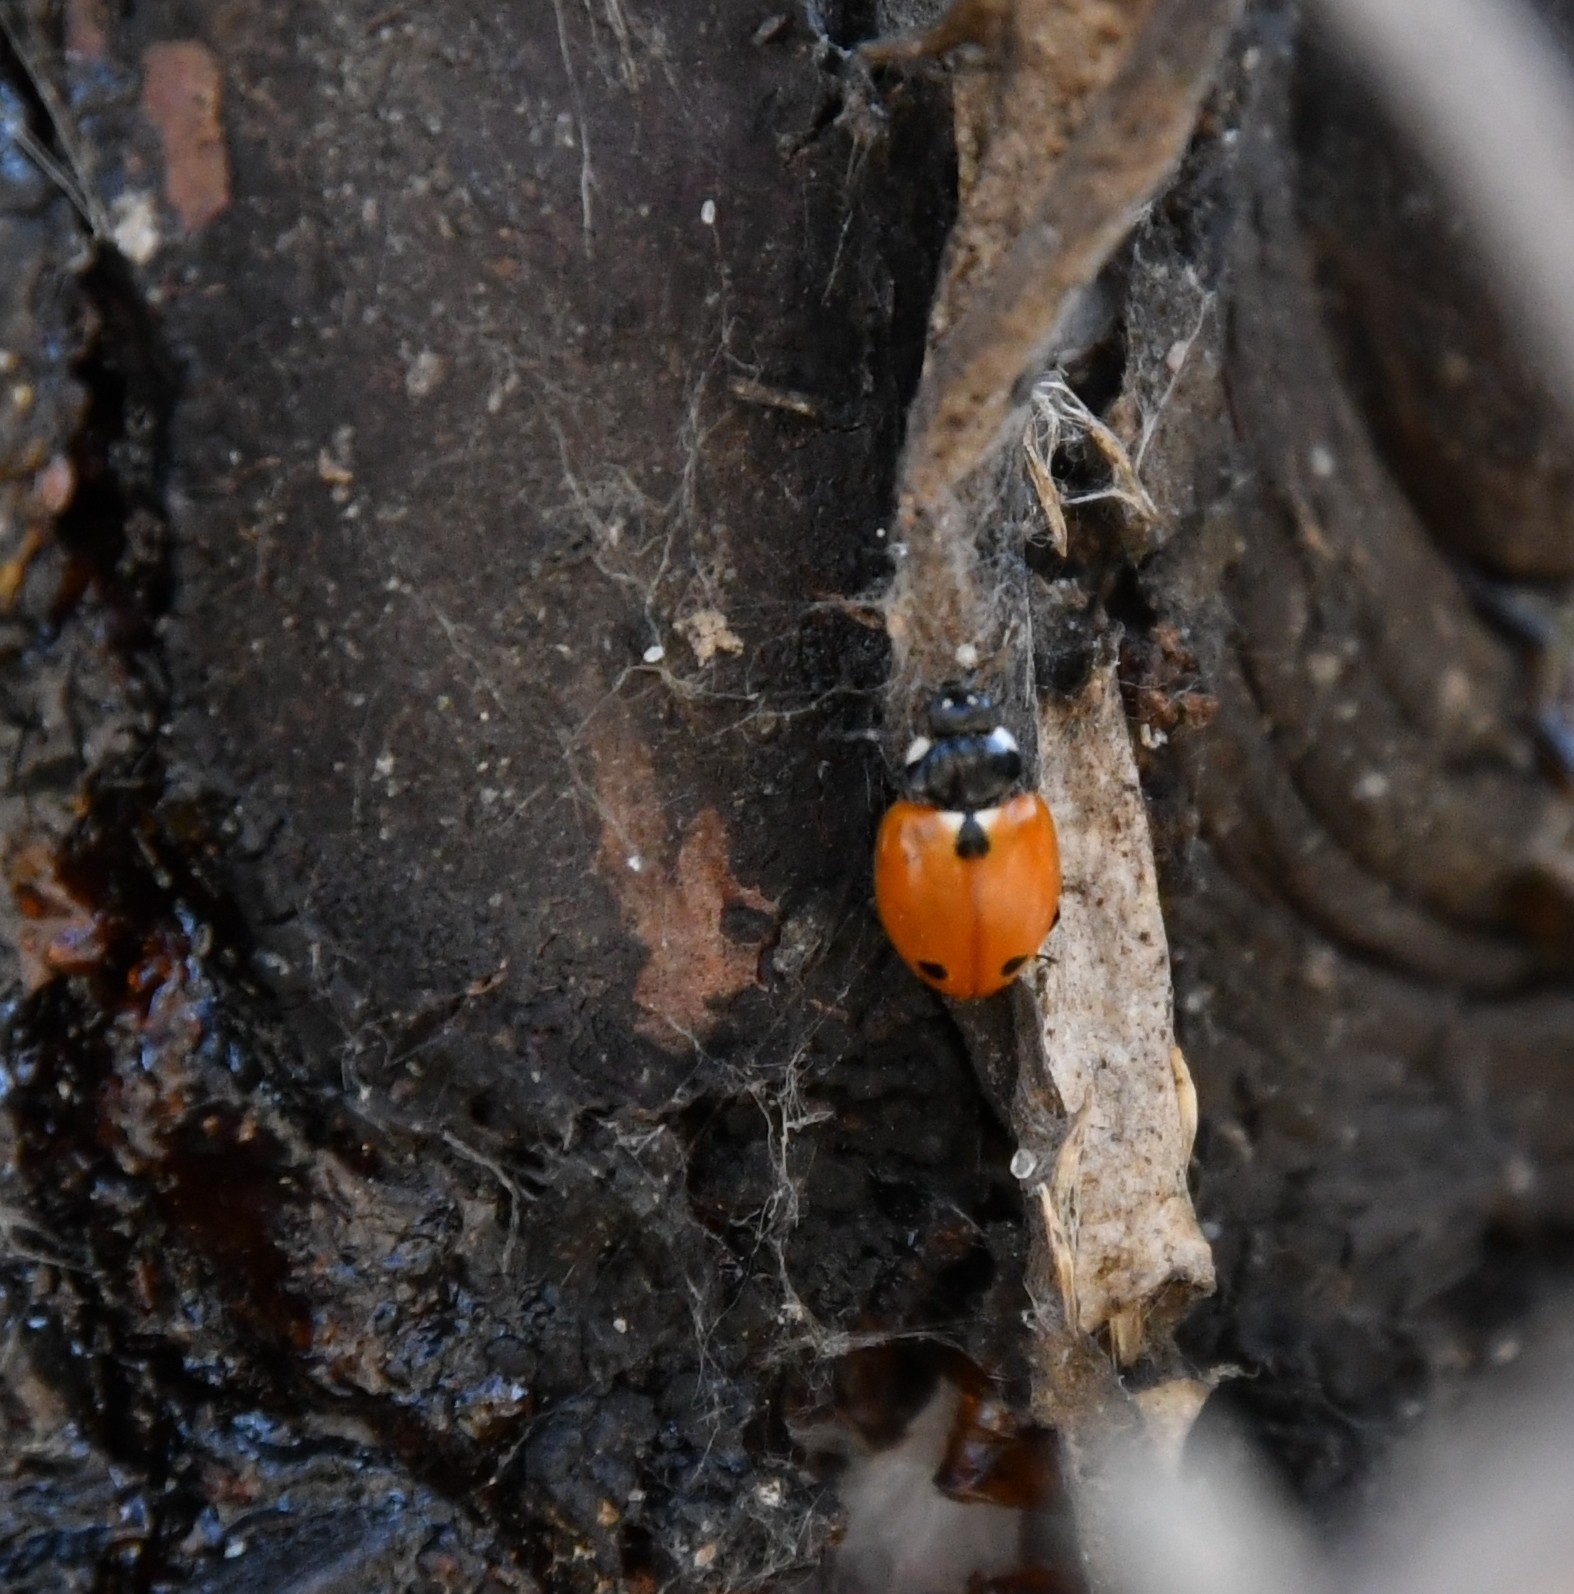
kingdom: Animalia
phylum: Arthropoda
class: Insecta
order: Coleoptera
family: Coccinellidae
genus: Coccinella
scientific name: Coccinella undecimpunctata
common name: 11-spot ladybird
